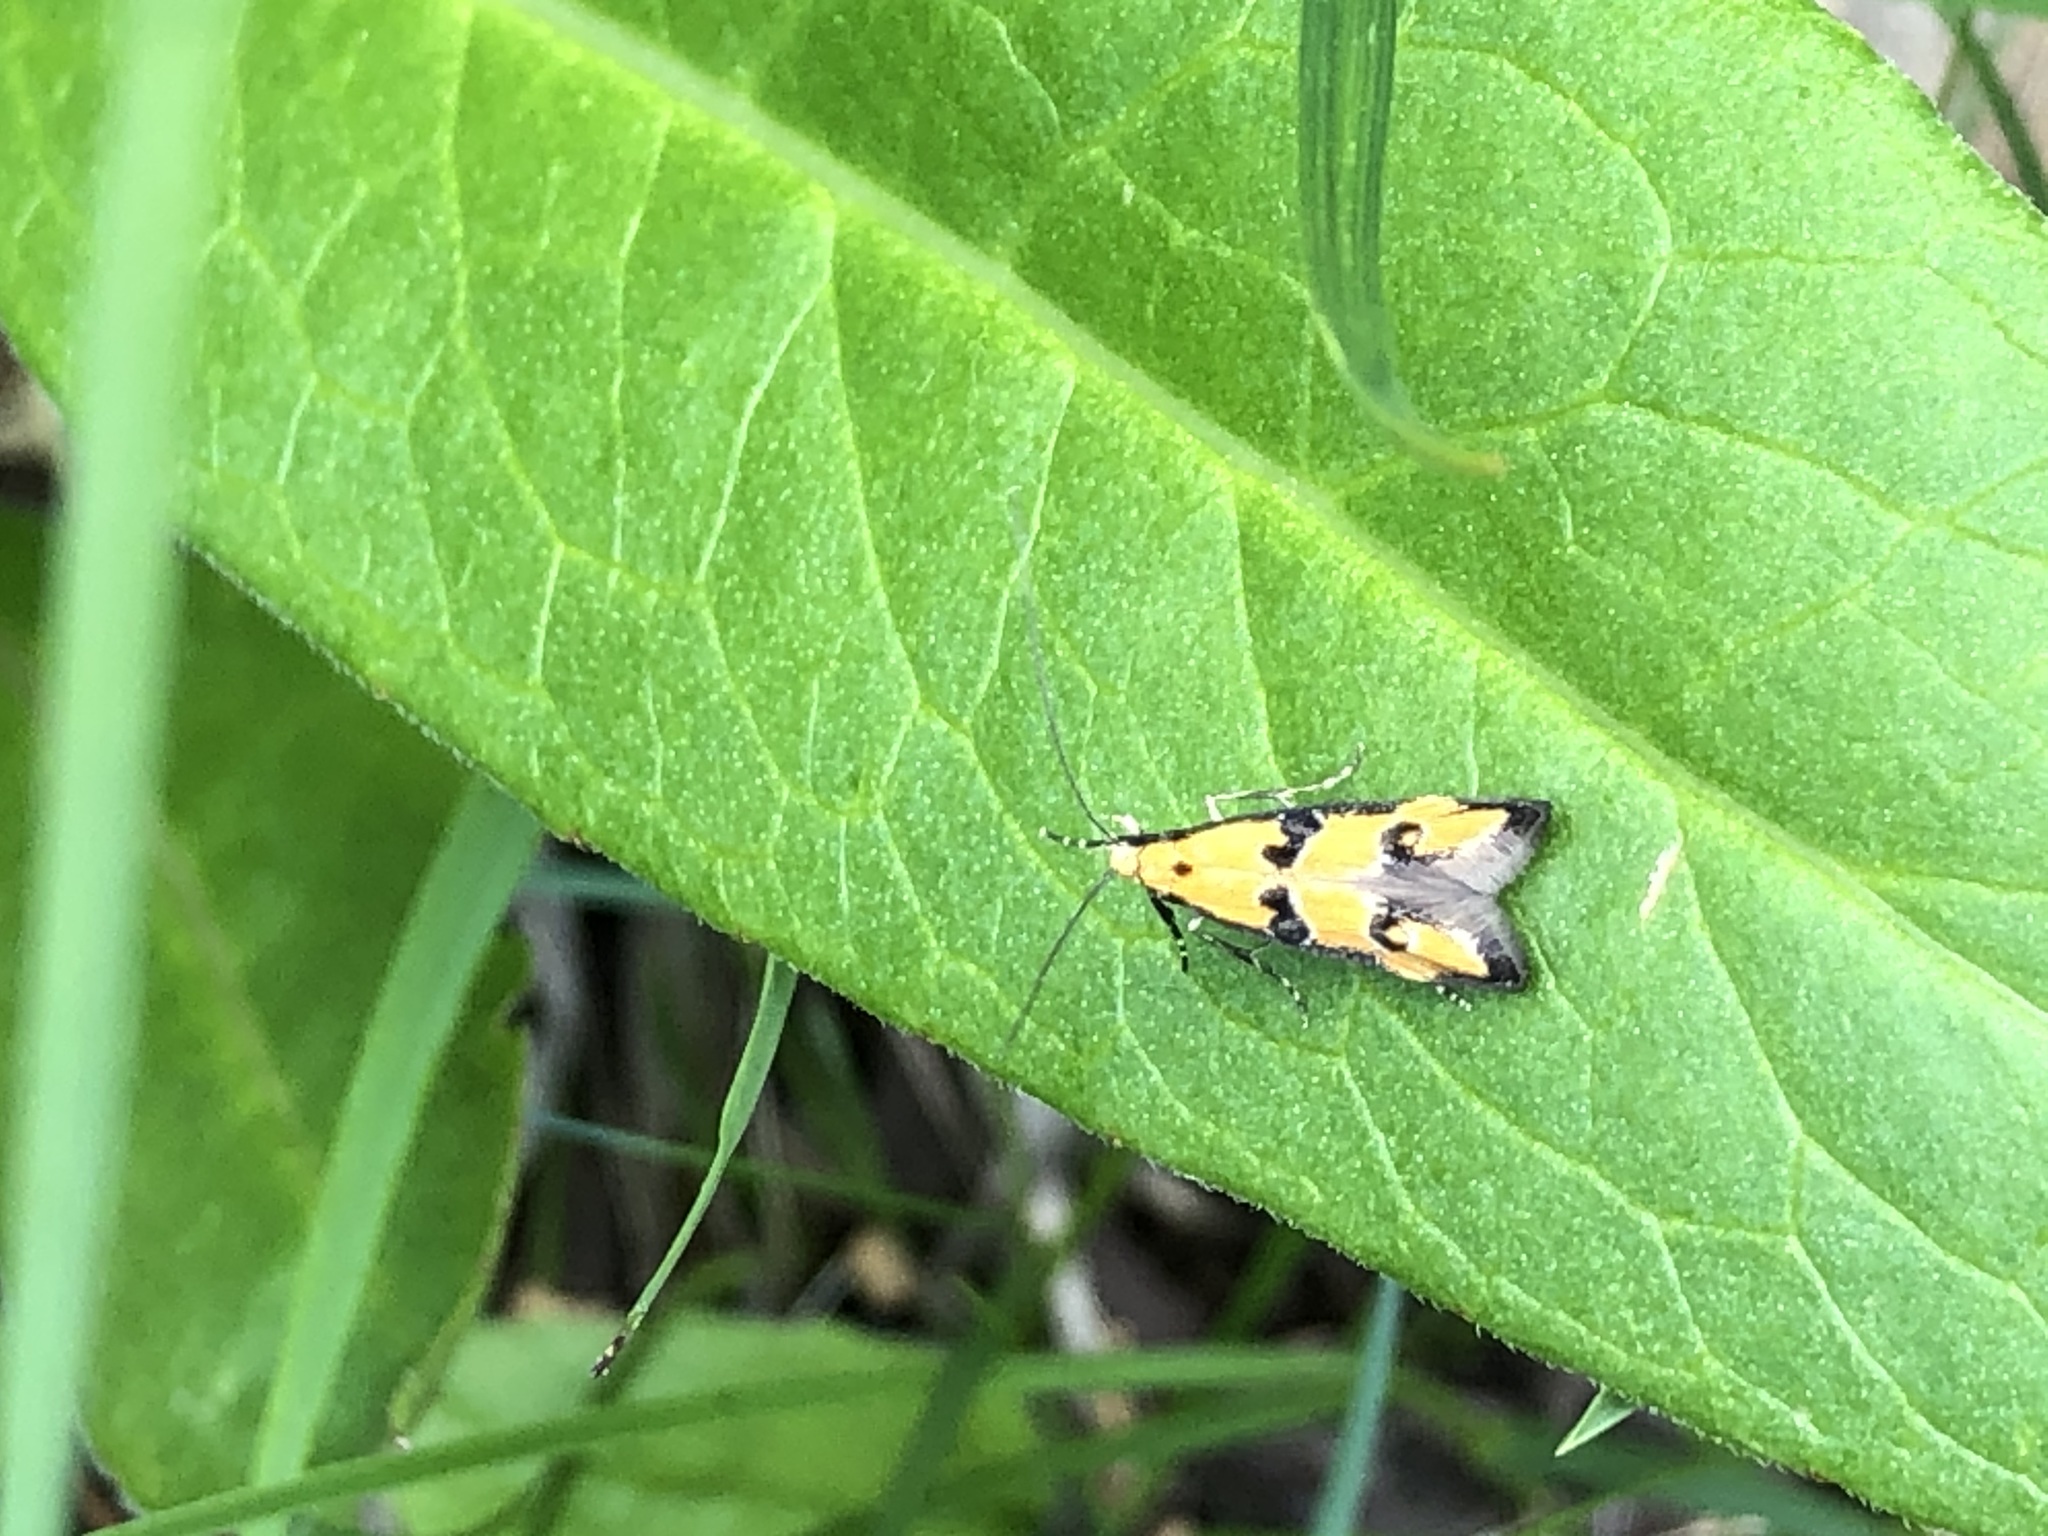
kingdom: Animalia
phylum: Arthropoda
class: Insecta
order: Lepidoptera
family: Elachistidae
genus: Heinemannia
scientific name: Heinemannia laspeyrella
